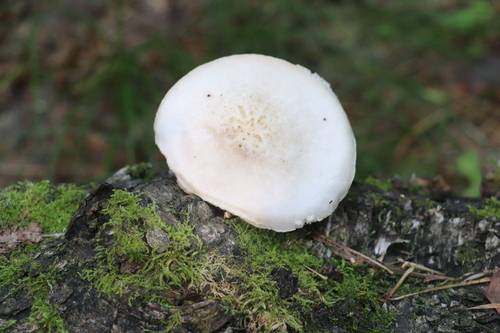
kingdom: Fungi
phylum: Basidiomycota
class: Agaricomycetes
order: Agaricales
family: Pluteaceae
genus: Pluteus
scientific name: Pluteus petasatus
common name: Scaly shield
